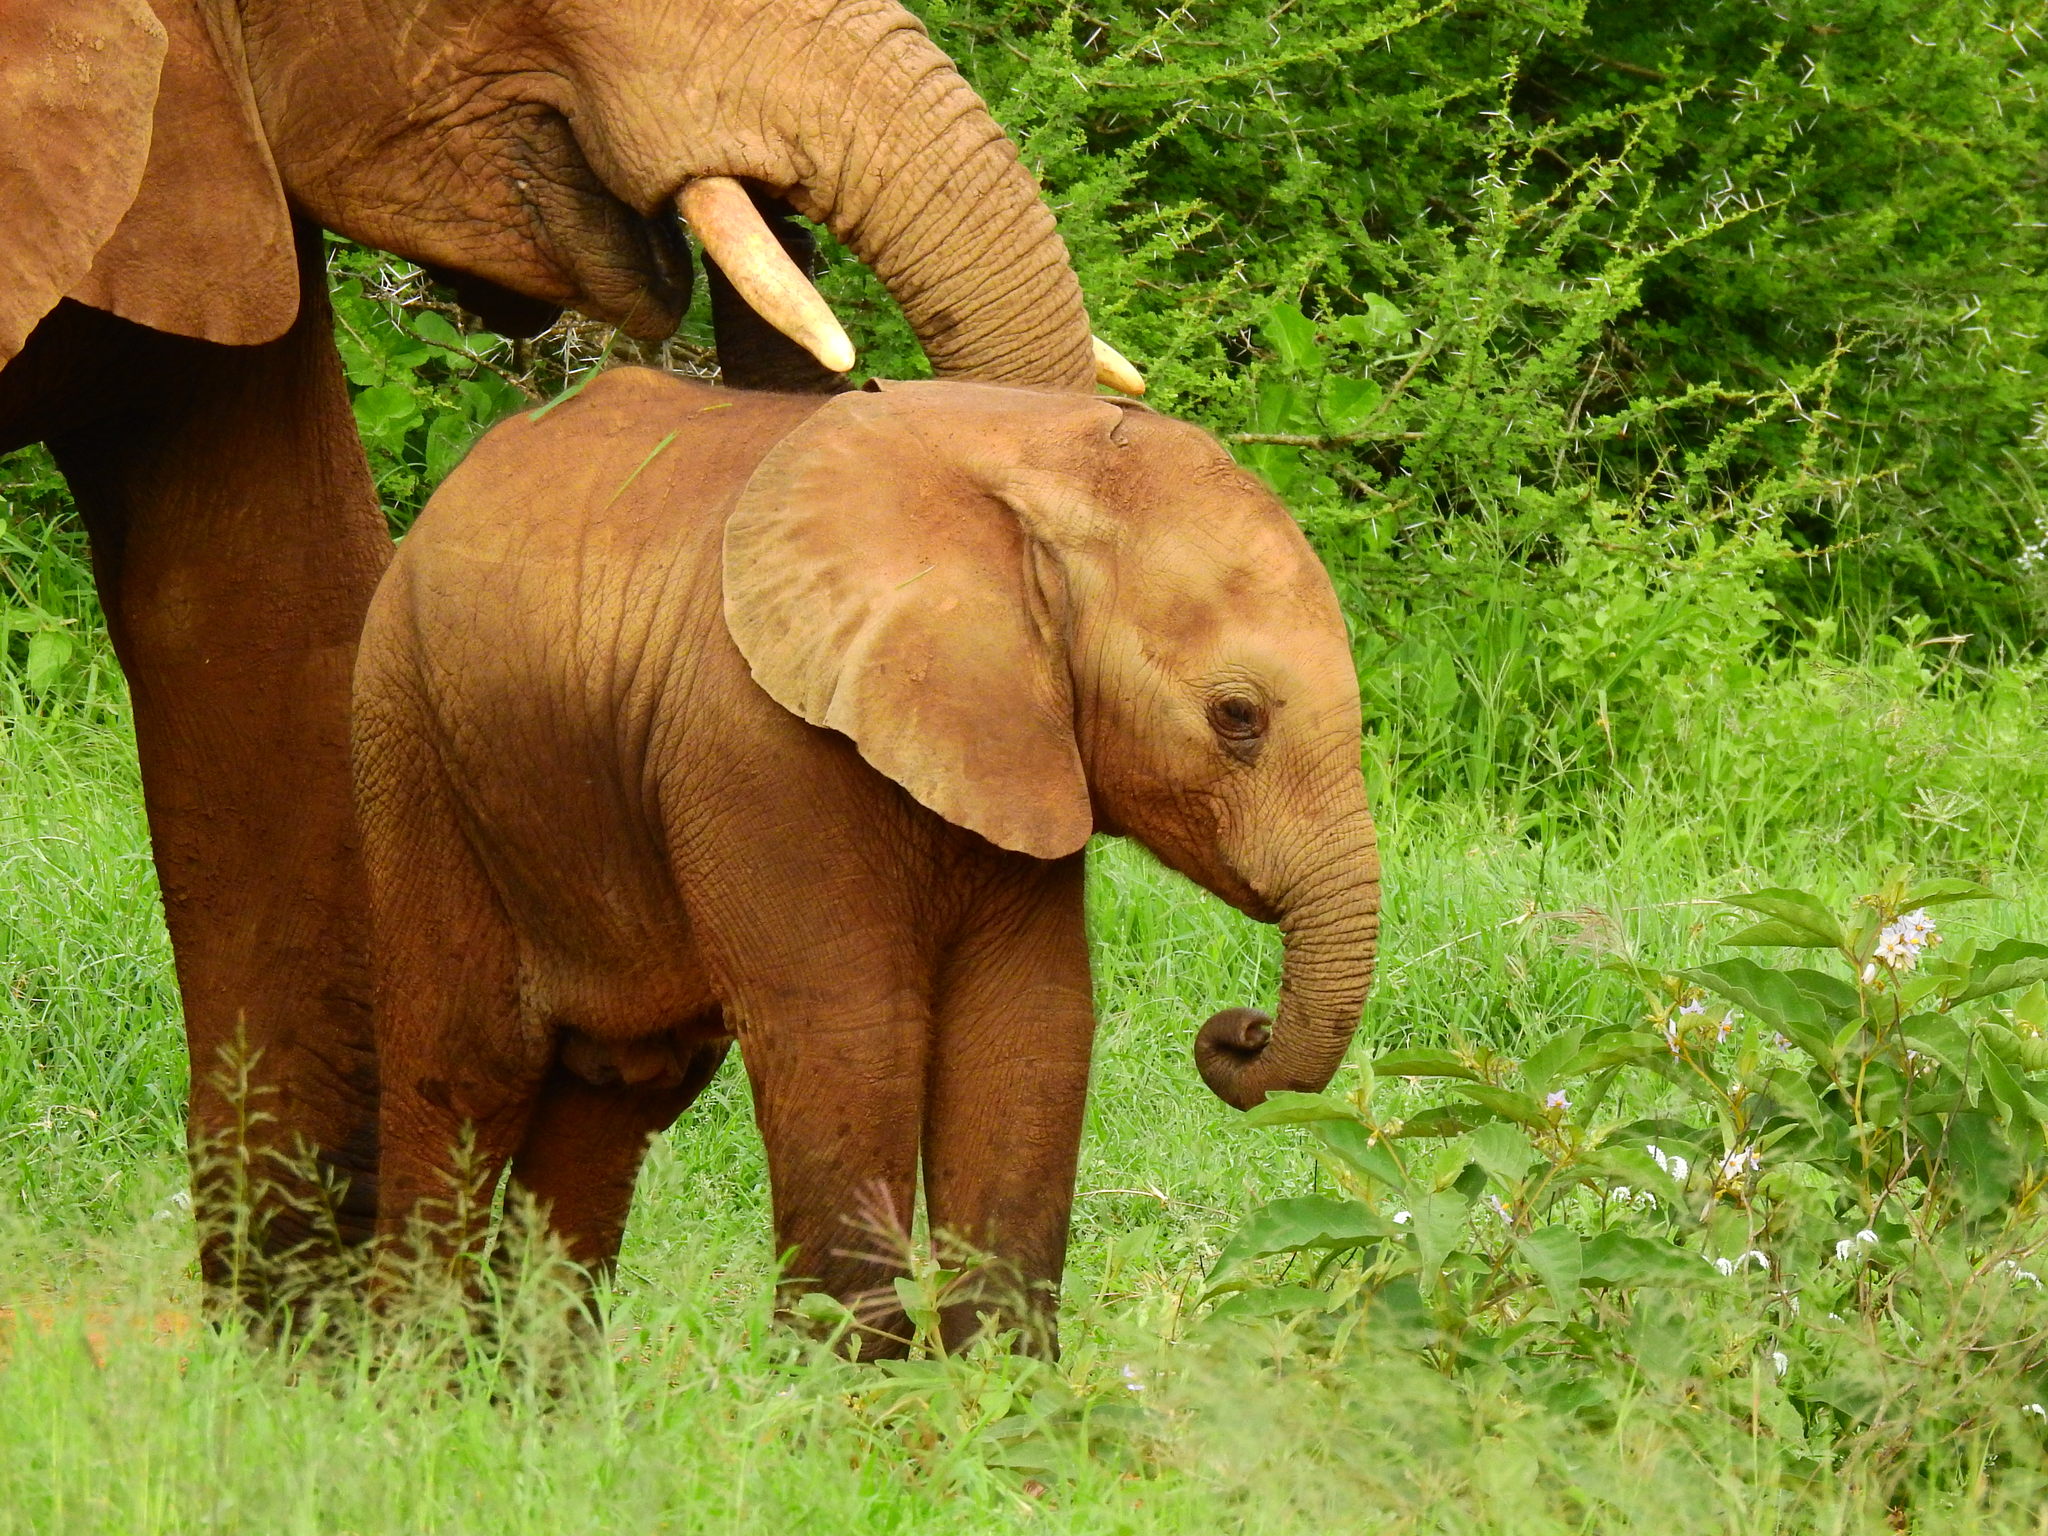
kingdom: Animalia
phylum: Chordata
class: Mammalia
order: Proboscidea
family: Elephantidae
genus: Loxodonta
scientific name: Loxodonta africana
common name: African elephant
